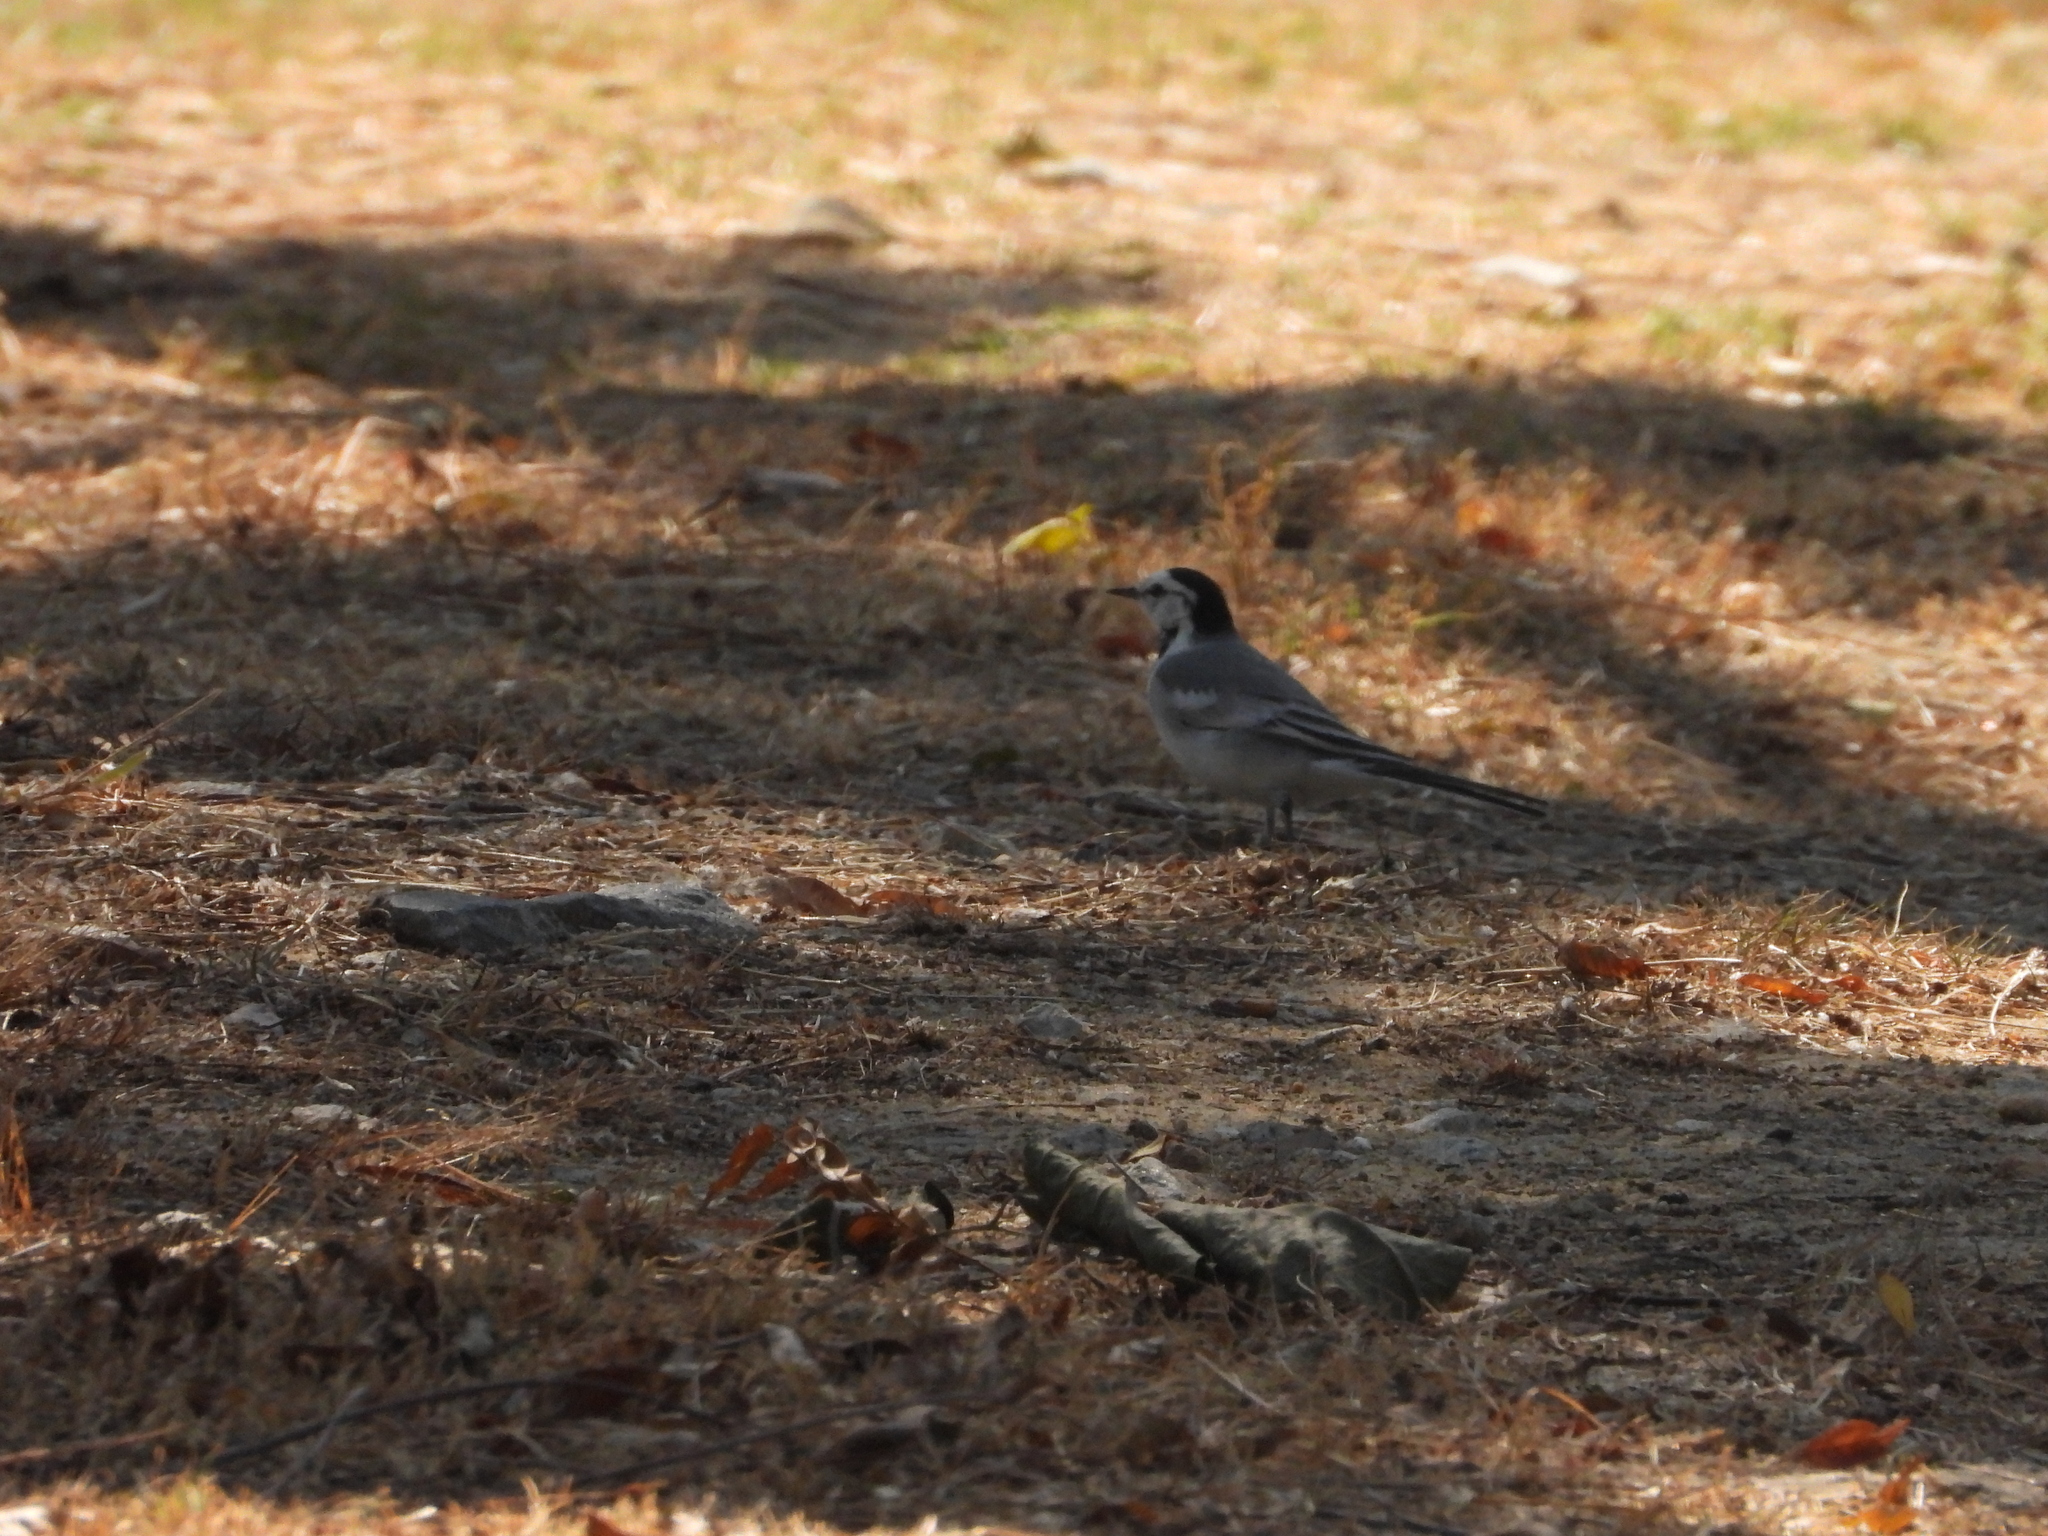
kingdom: Animalia
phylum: Chordata
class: Aves
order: Passeriformes
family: Motacillidae
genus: Motacilla
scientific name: Motacilla alba
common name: White wagtail
